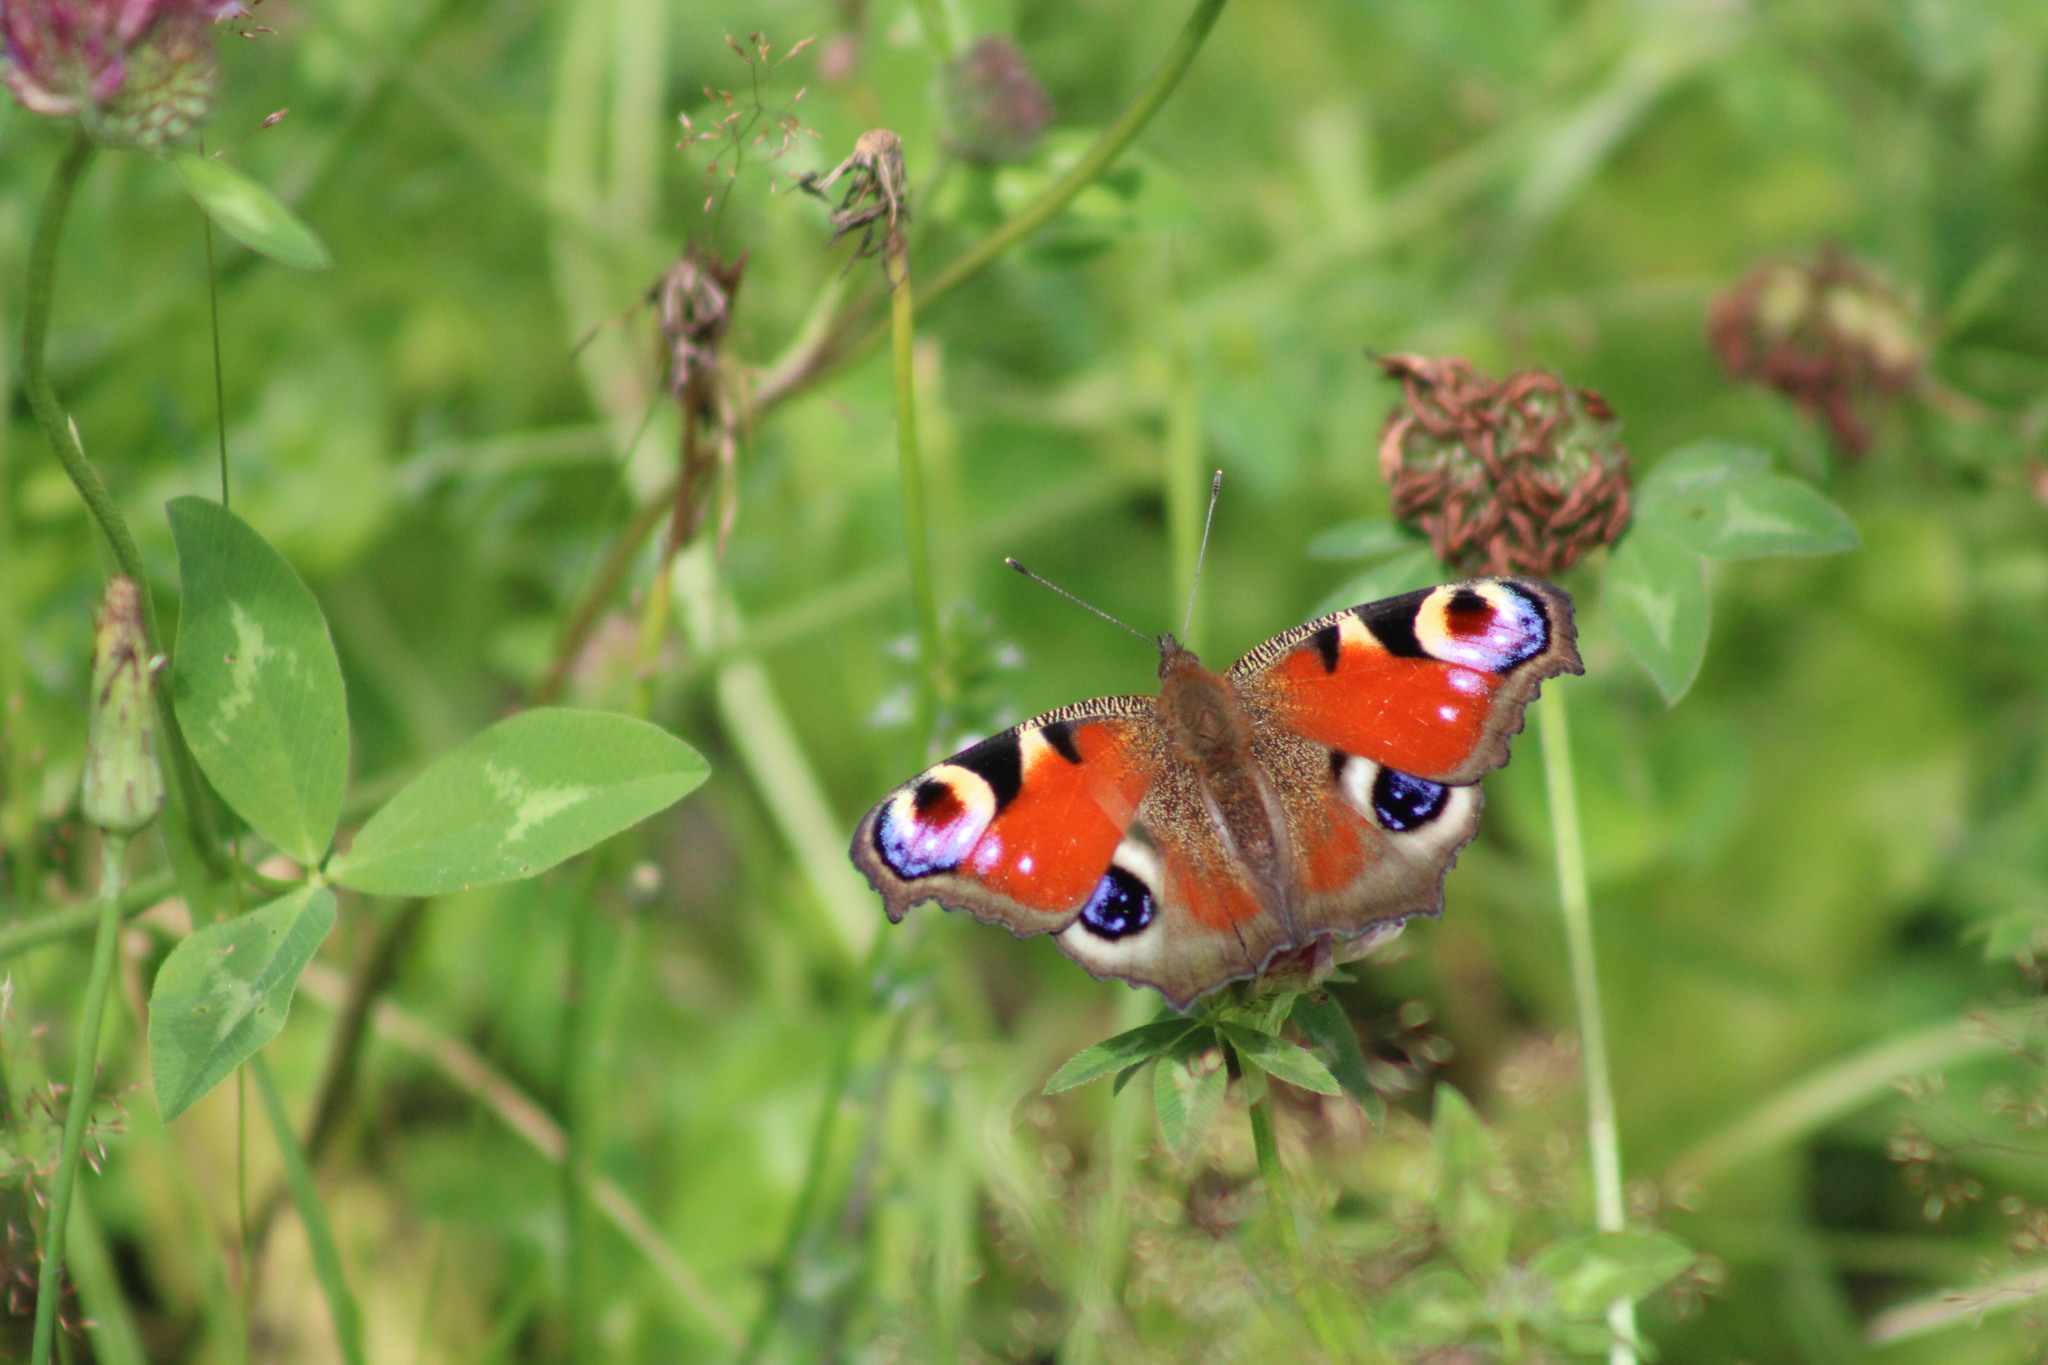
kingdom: Animalia
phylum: Arthropoda
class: Insecta
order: Lepidoptera
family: Nymphalidae
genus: Aglais
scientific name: Aglais io
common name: Peacock
